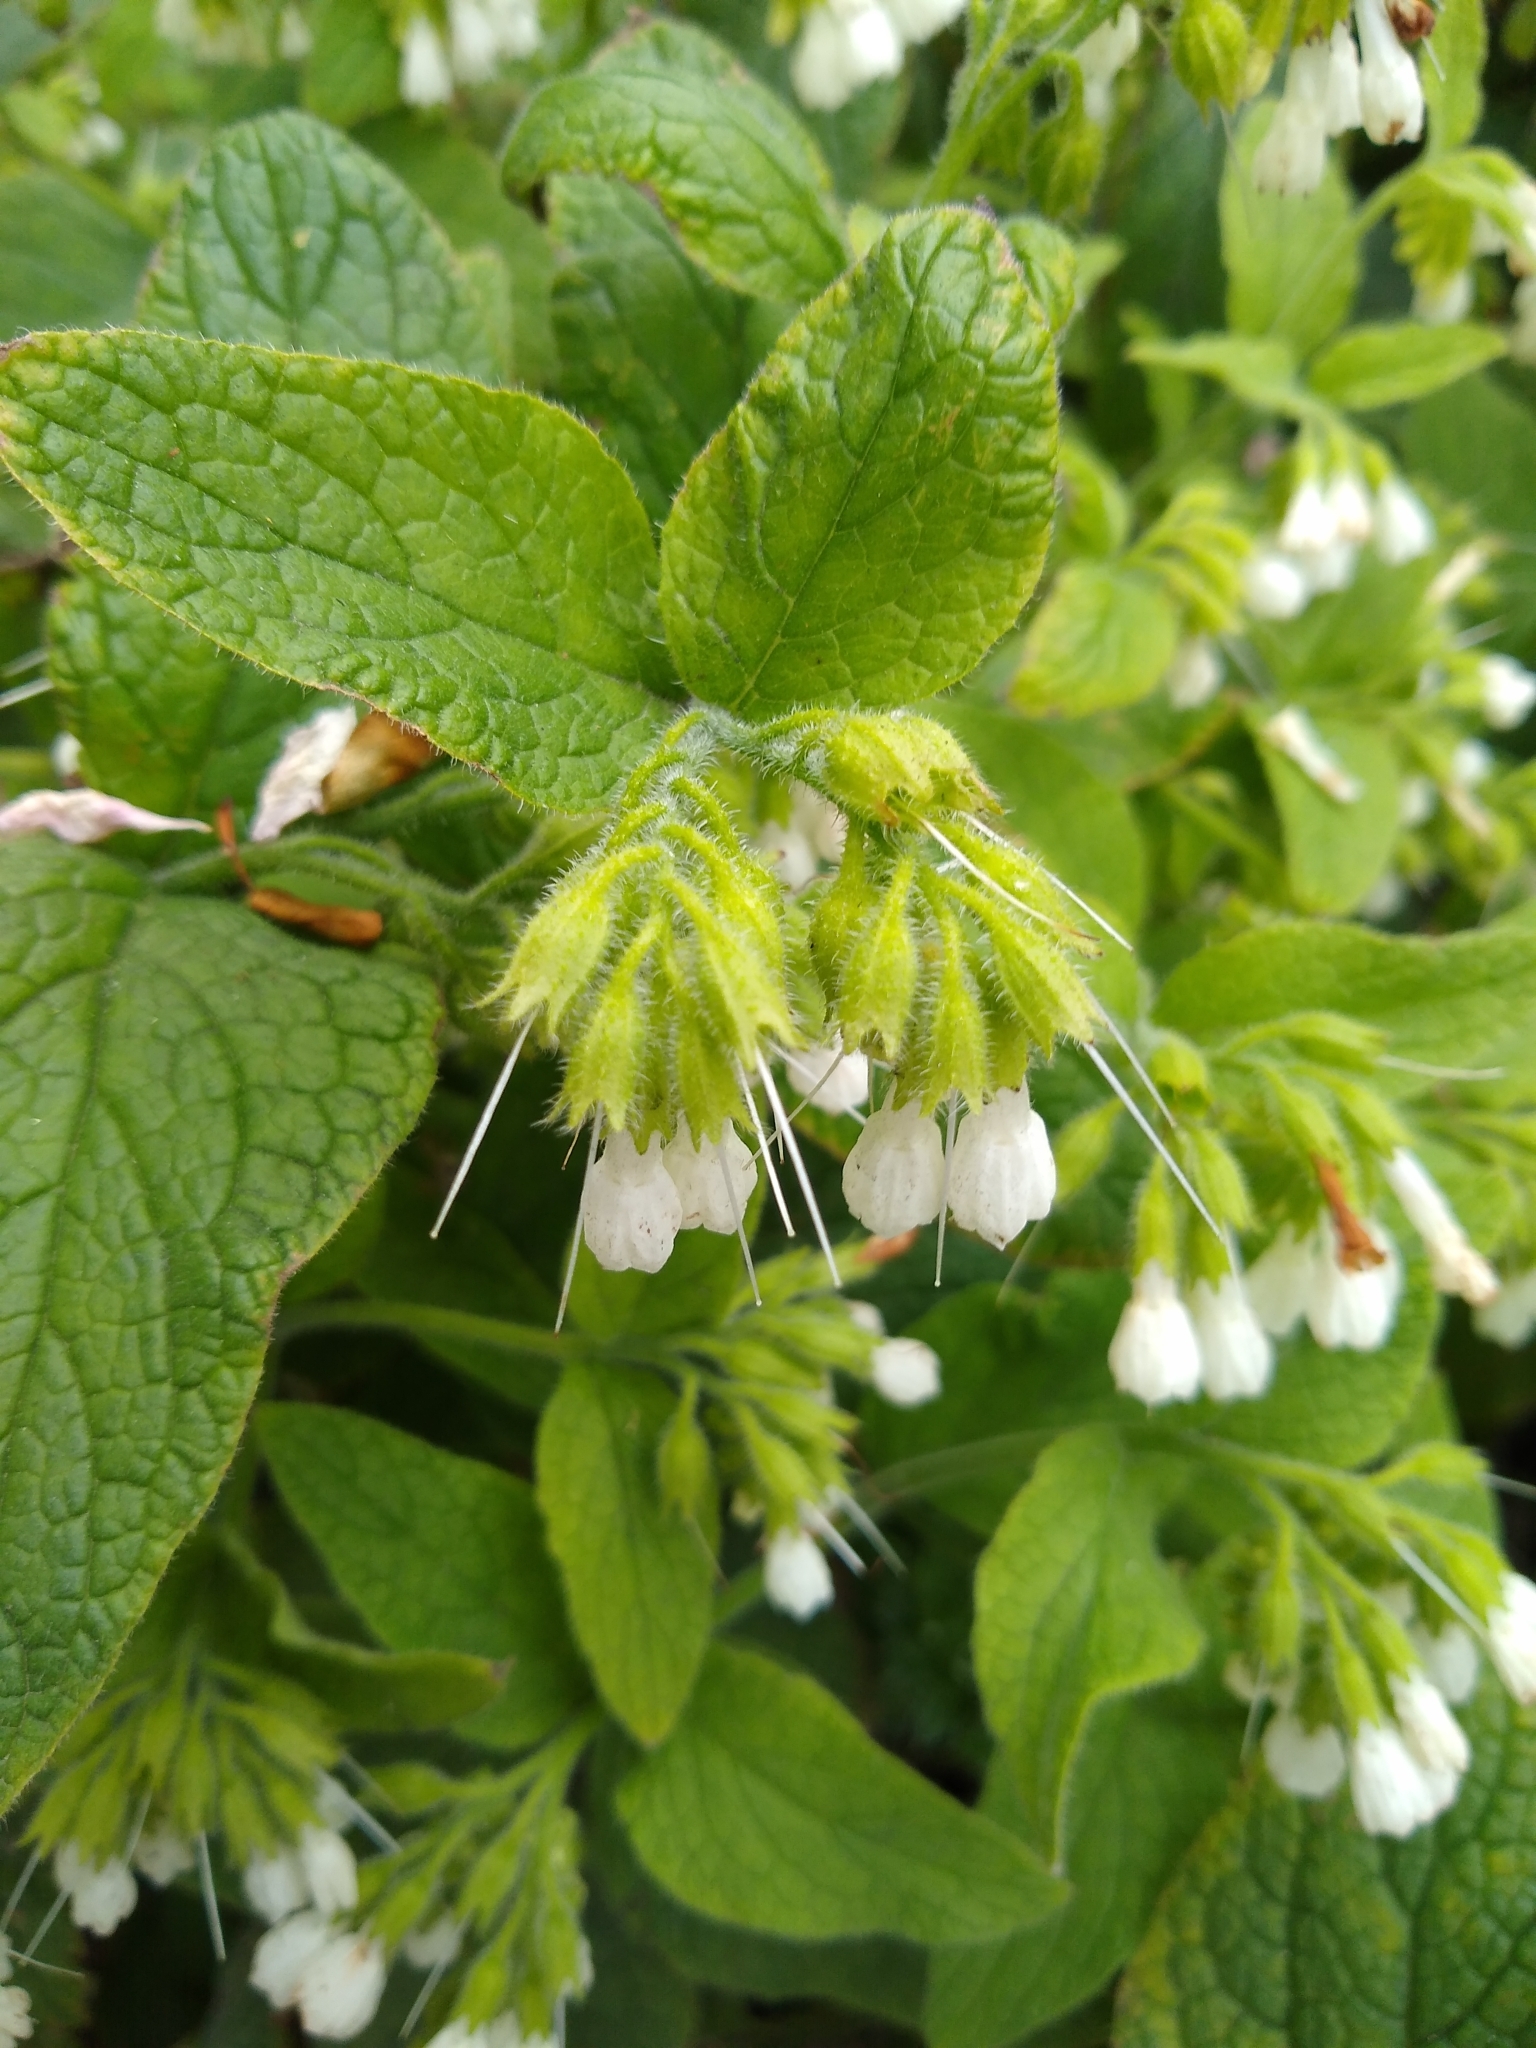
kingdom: Plantae
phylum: Tracheophyta
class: Magnoliopsida
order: Boraginales
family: Boraginaceae
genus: Symphytum
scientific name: Symphytum orientale
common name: White comfrey
